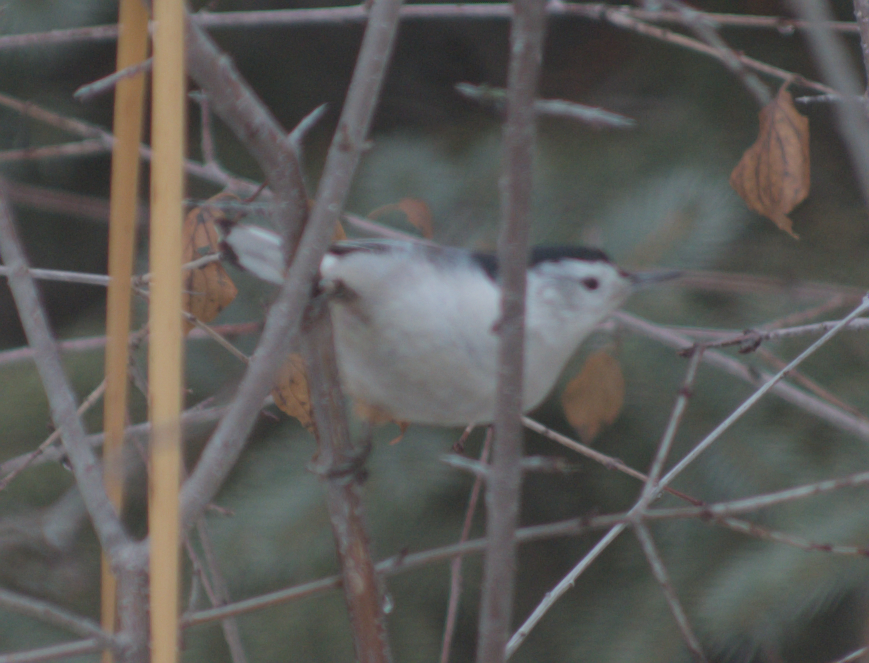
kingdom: Animalia
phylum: Chordata
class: Aves
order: Passeriformes
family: Sittidae
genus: Sitta
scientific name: Sitta carolinensis
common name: White-breasted nuthatch
